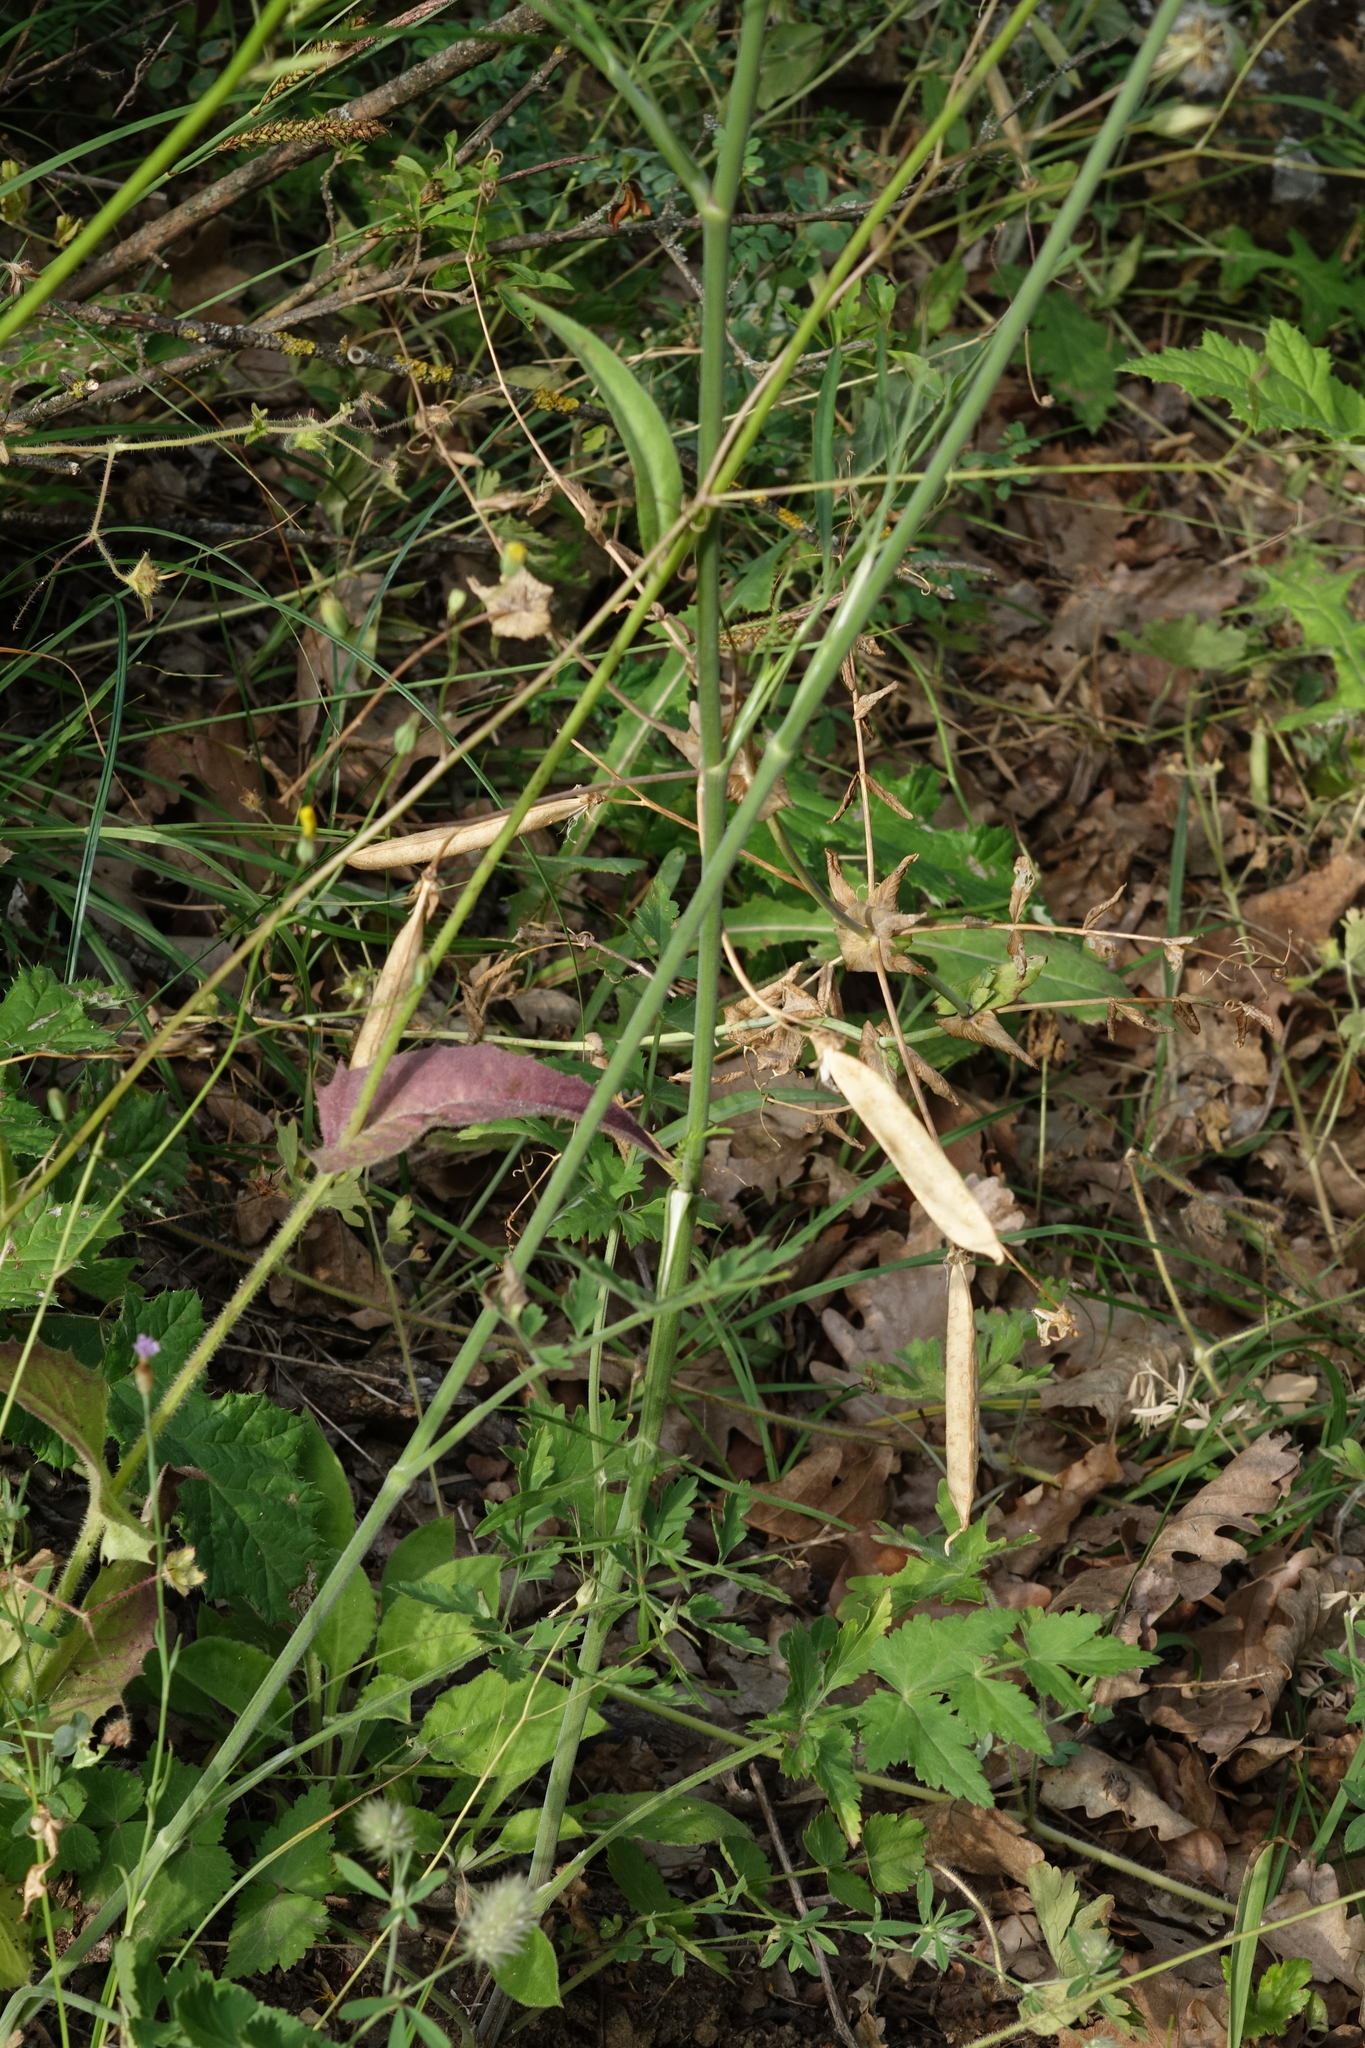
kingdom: Plantae
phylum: Tracheophyta
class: Magnoliopsida
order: Fabales
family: Fabaceae
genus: Lathyrus
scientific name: Lathyrus oleraceus
